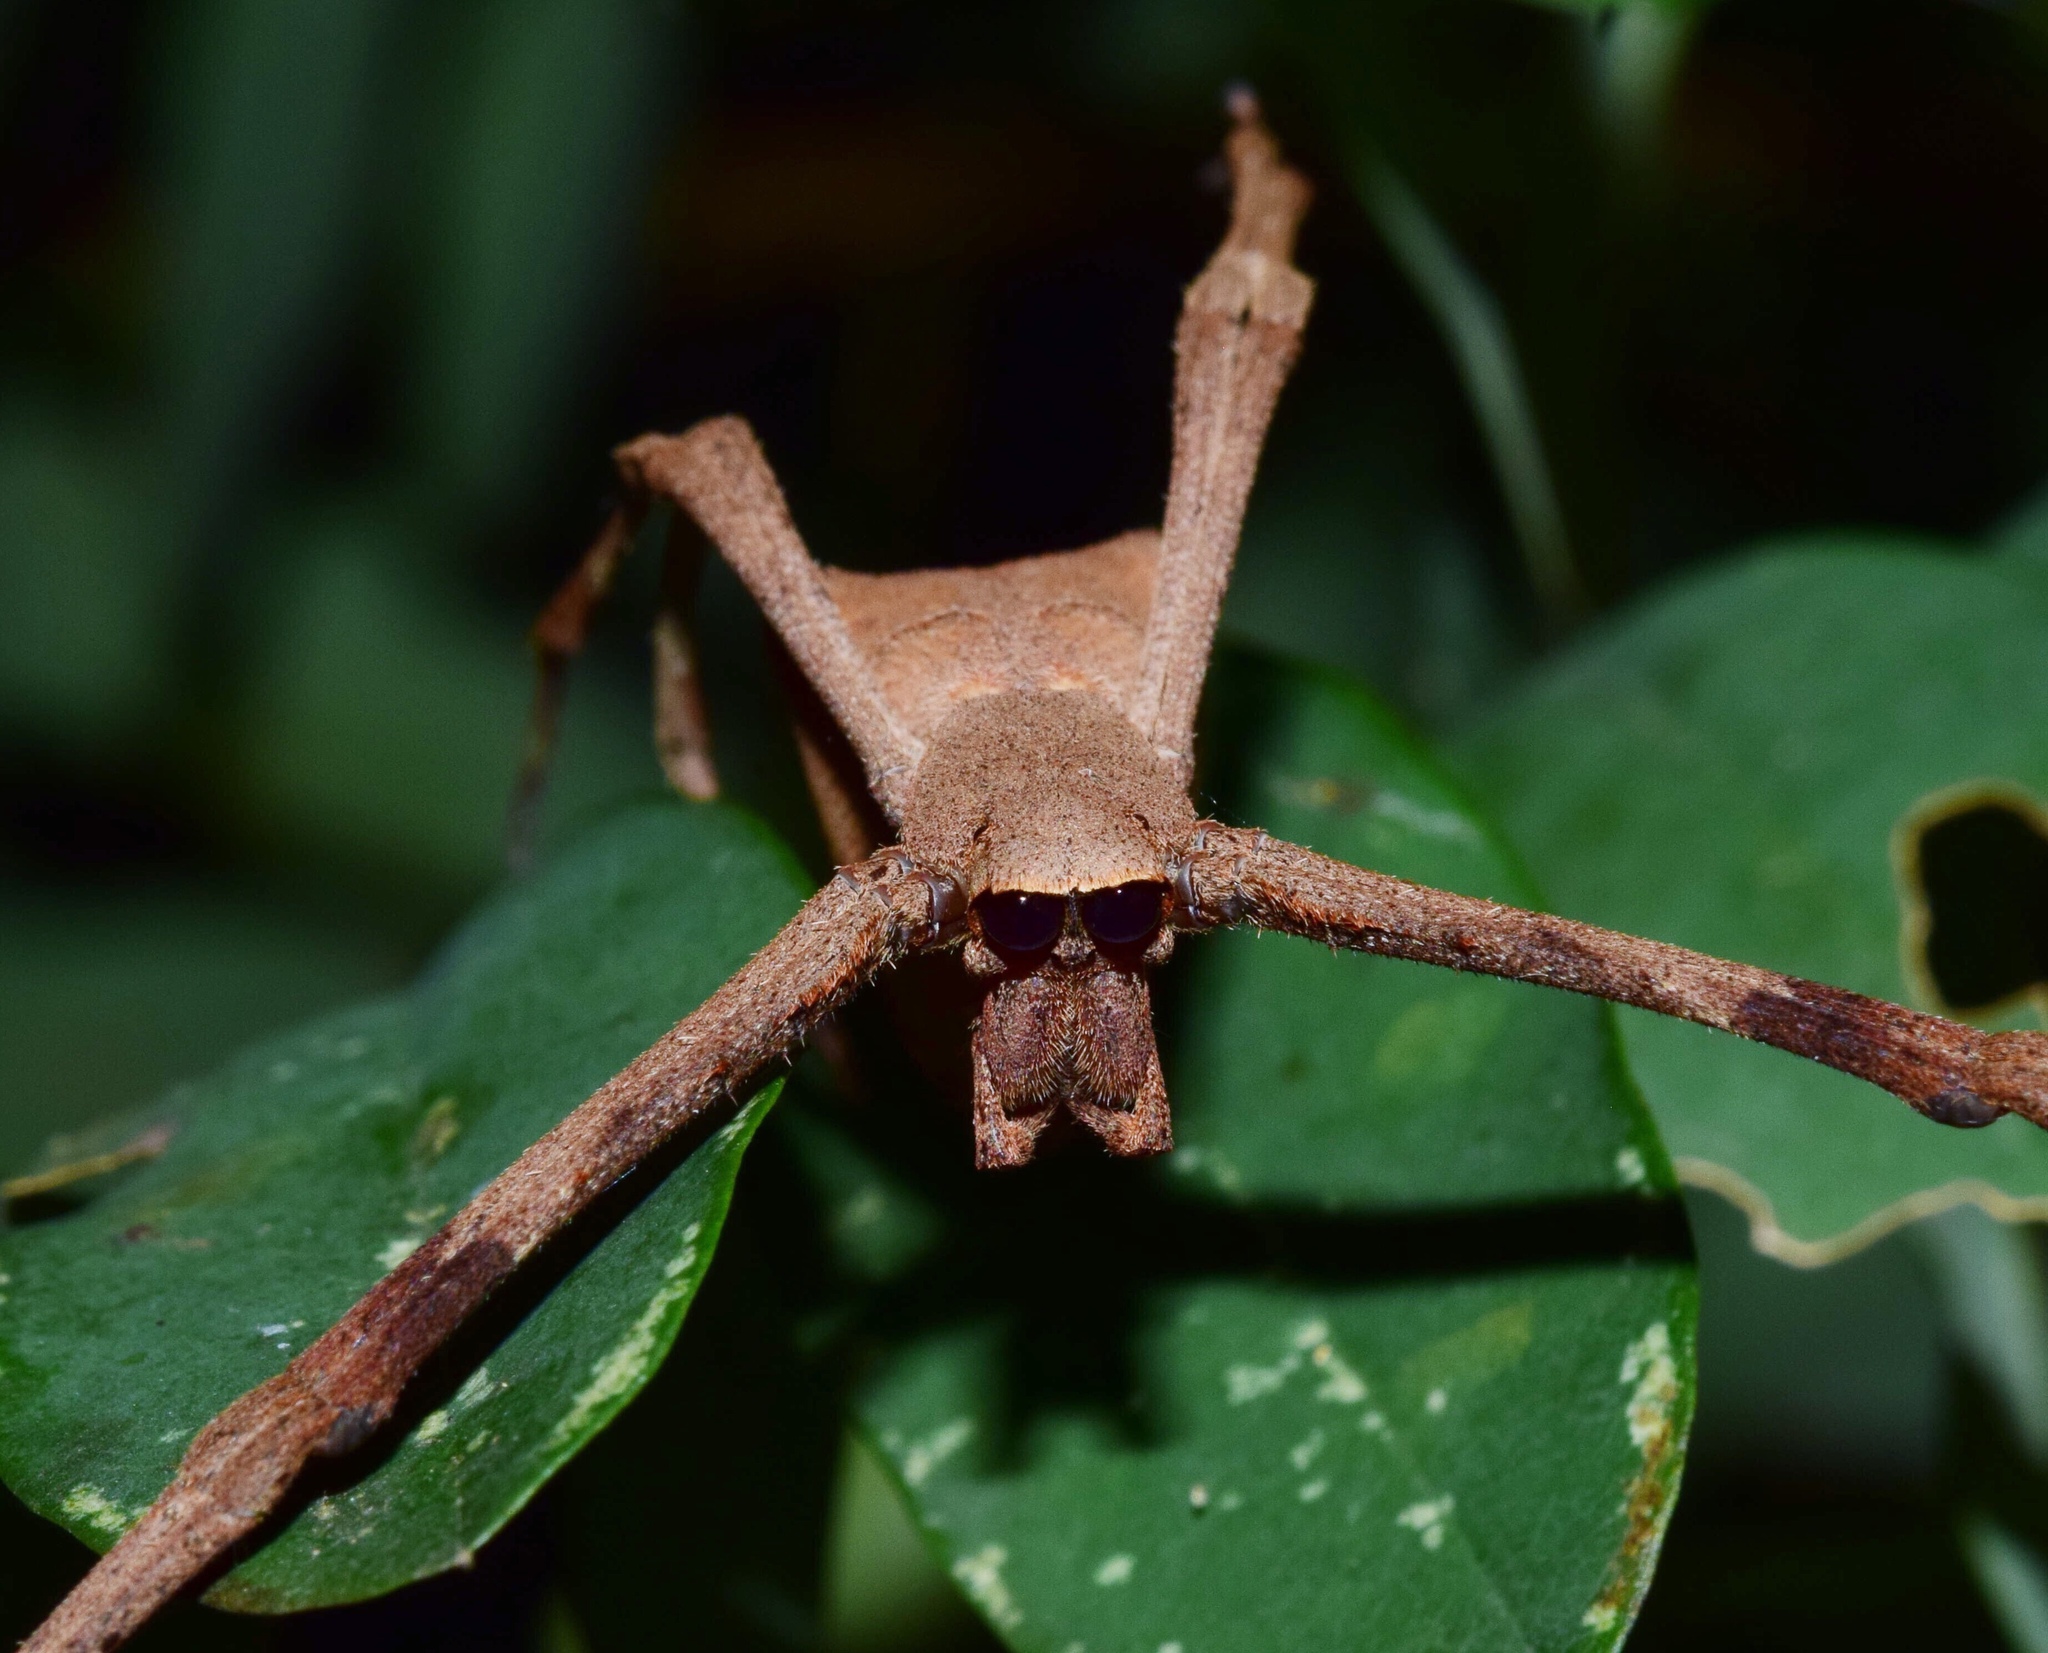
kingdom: Animalia
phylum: Arthropoda
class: Arachnida
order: Araneae
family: Deinopidae
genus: Deinopis
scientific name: Deinopis anchietae
